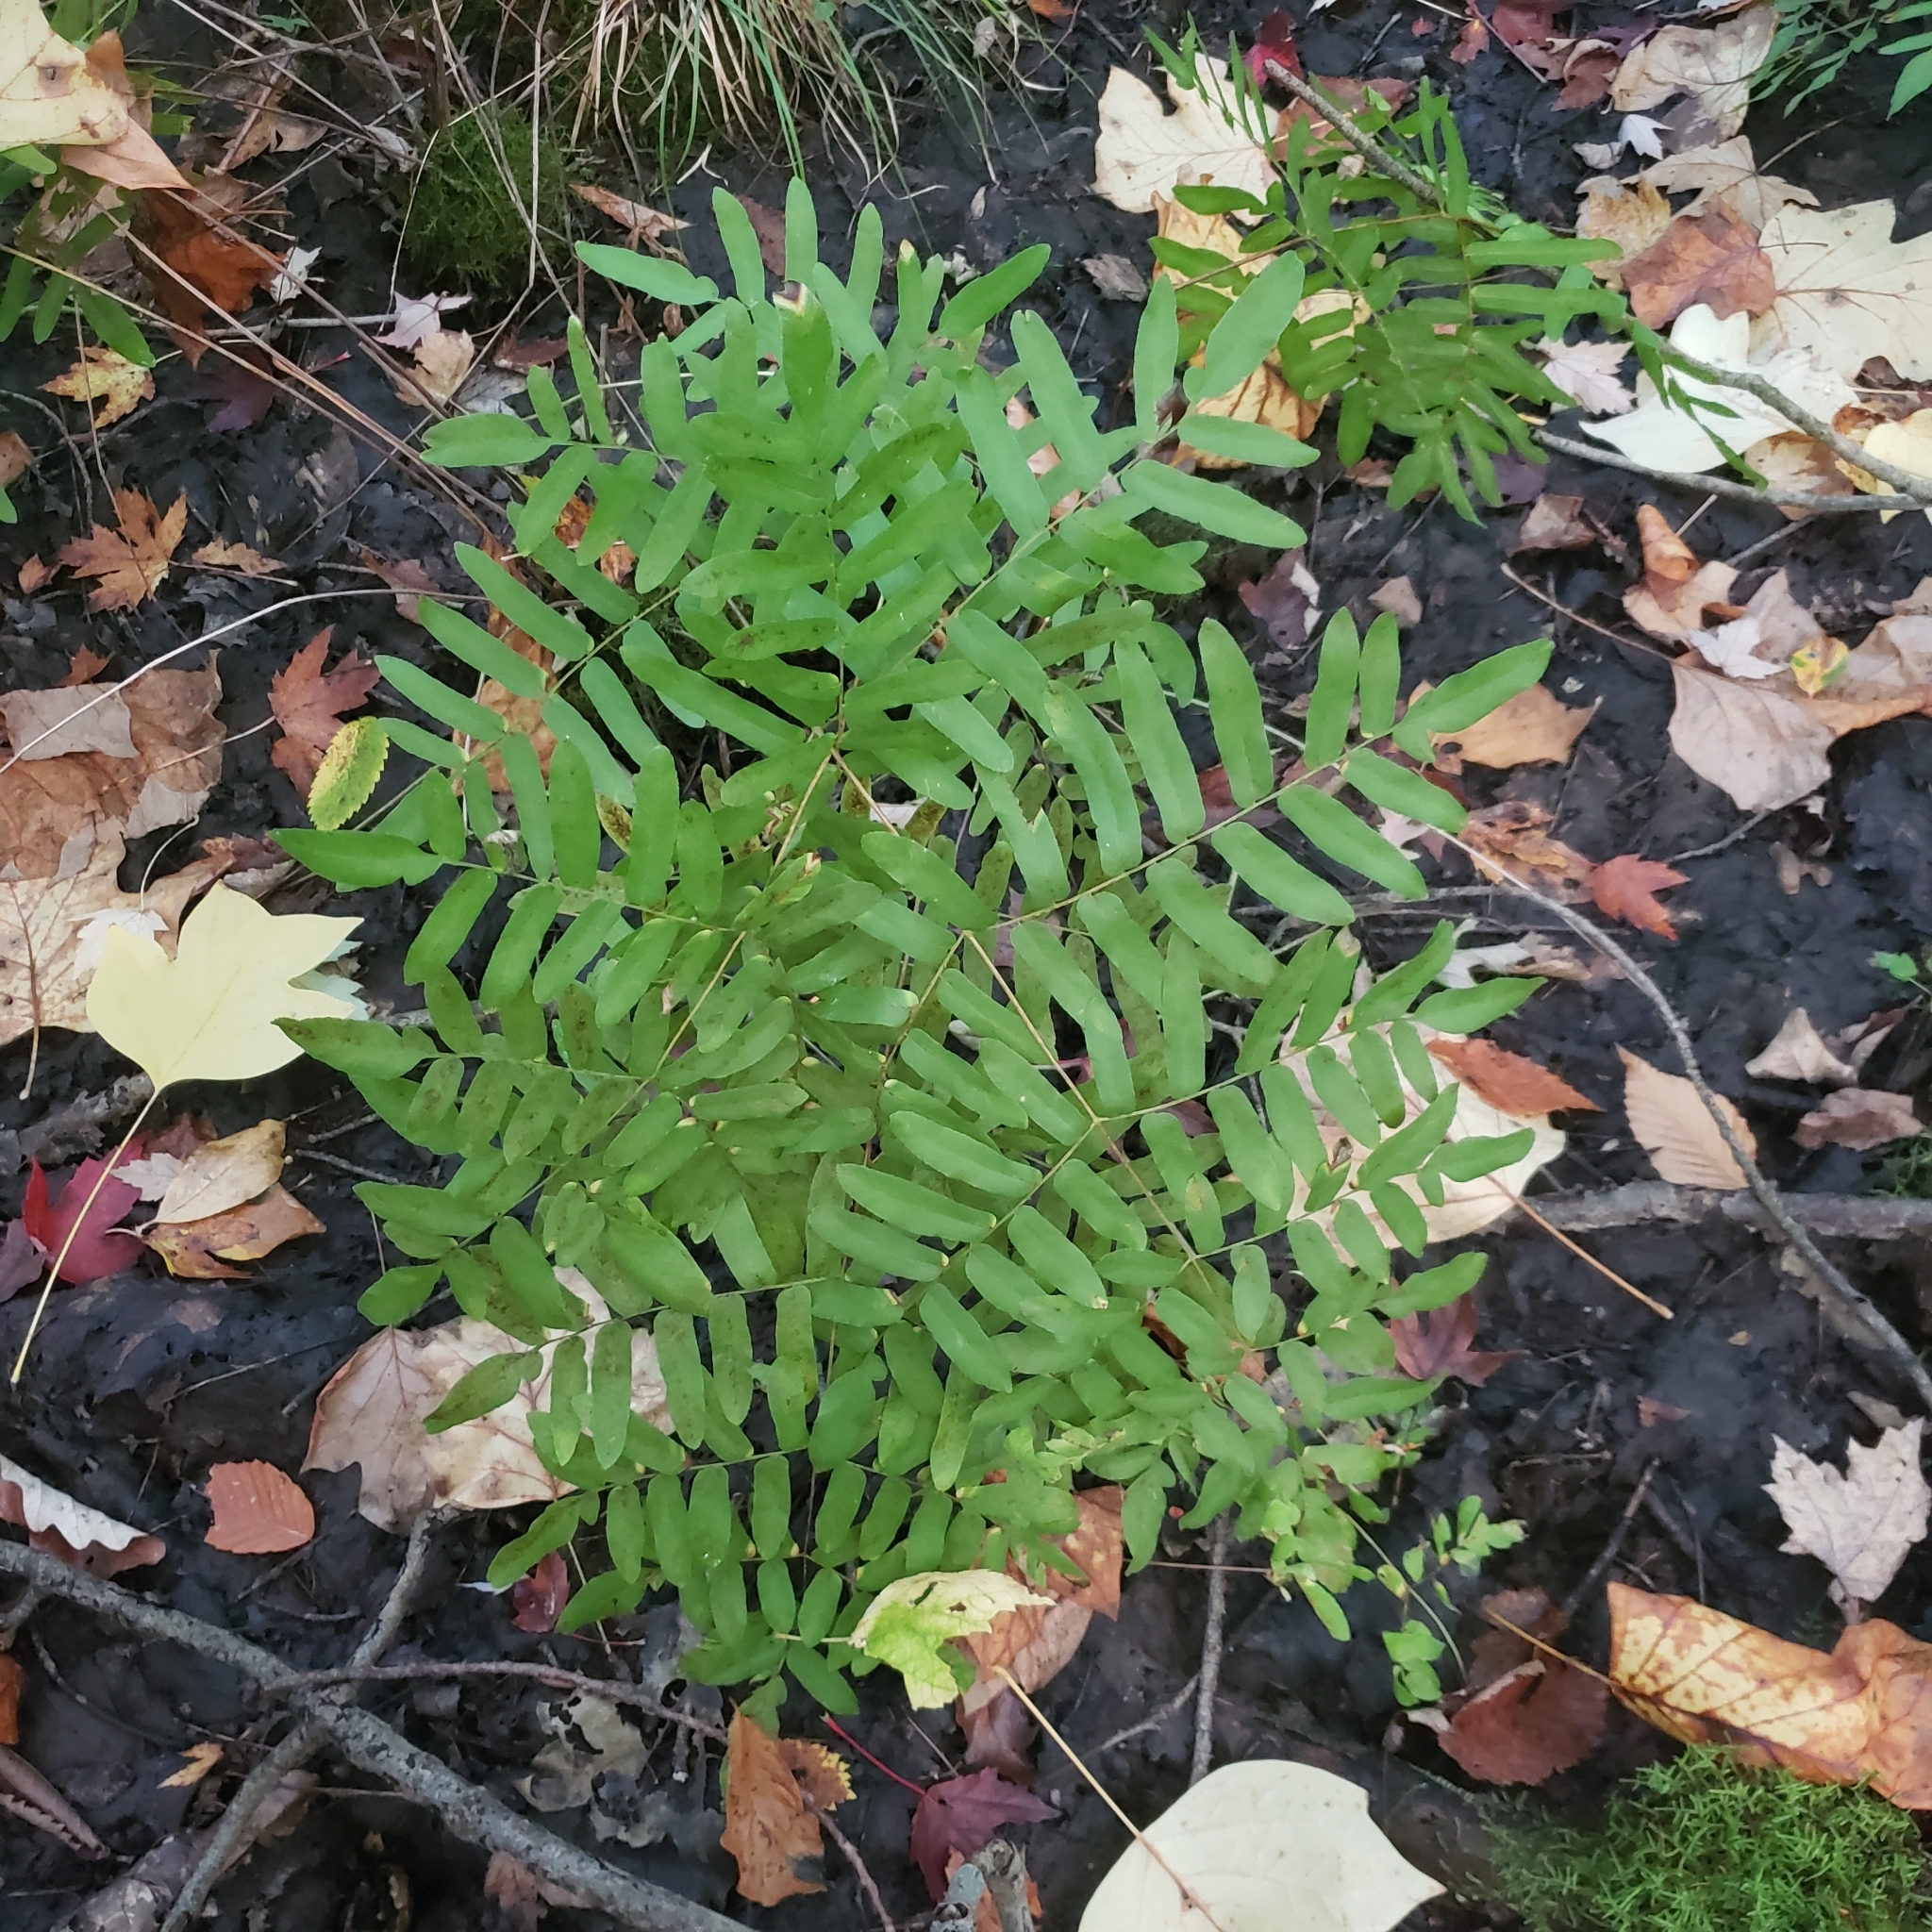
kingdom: Plantae
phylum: Tracheophyta
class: Polypodiopsida
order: Osmundales
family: Osmundaceae
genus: Osmunda
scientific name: Osmunda spectabilis
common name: American royal fern
